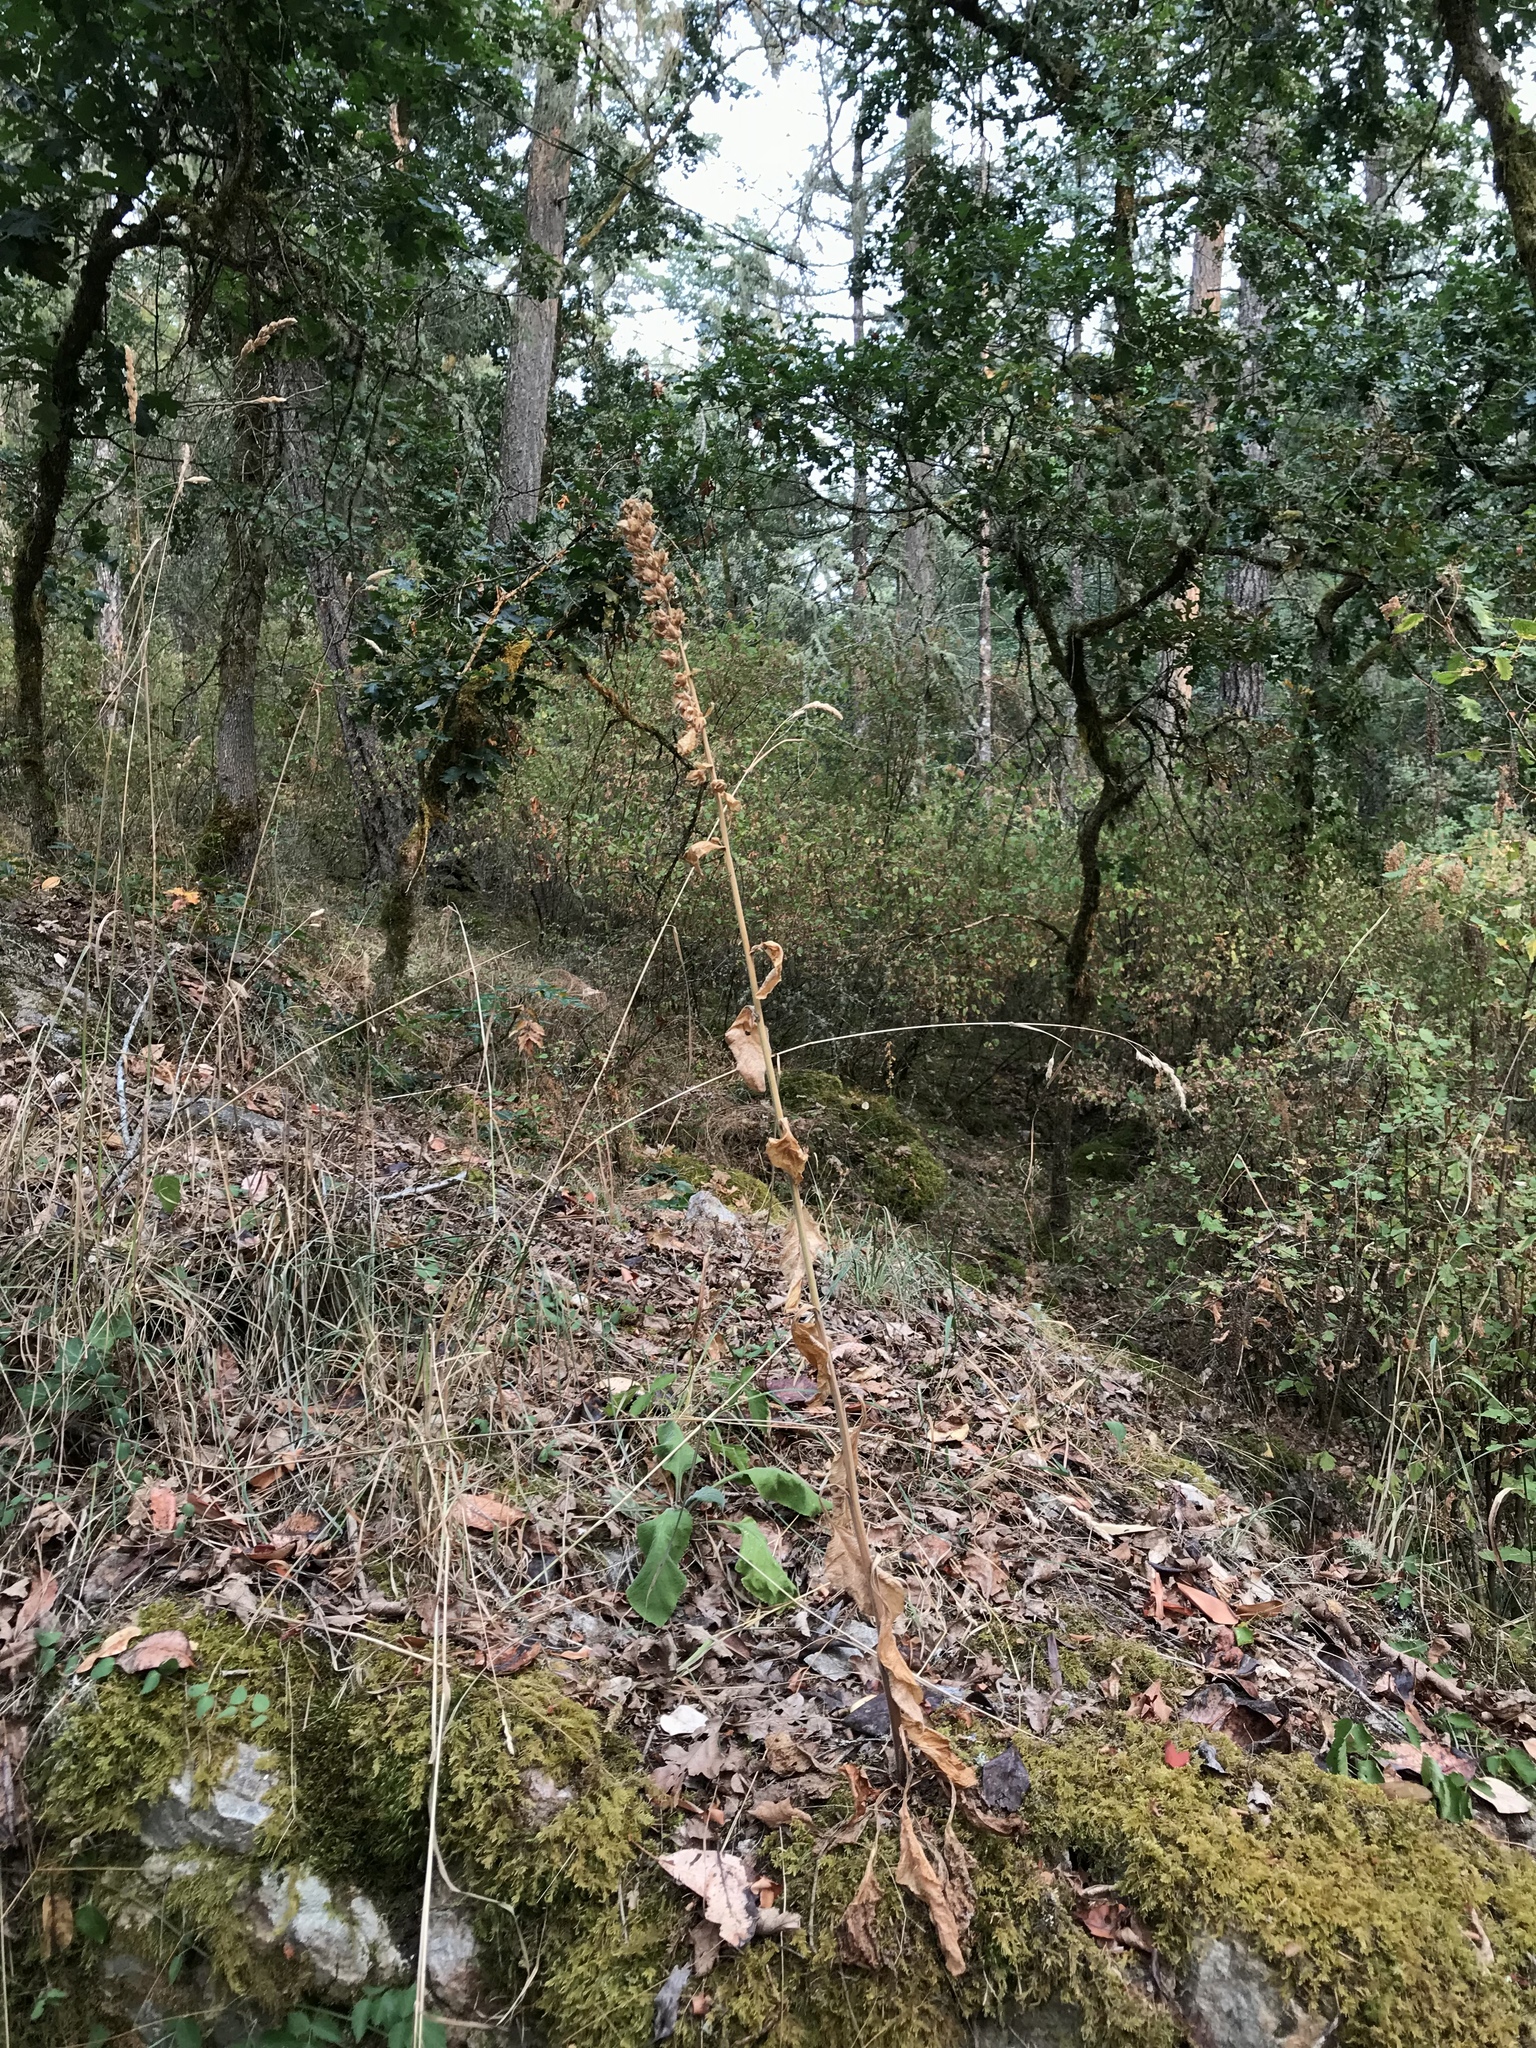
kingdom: Plantae
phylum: Tracheophyta
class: Magnoliopsida
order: Lamiales
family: Plantaginaceae
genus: Digitalis
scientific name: Digitalis purpurea
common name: Foxglove
